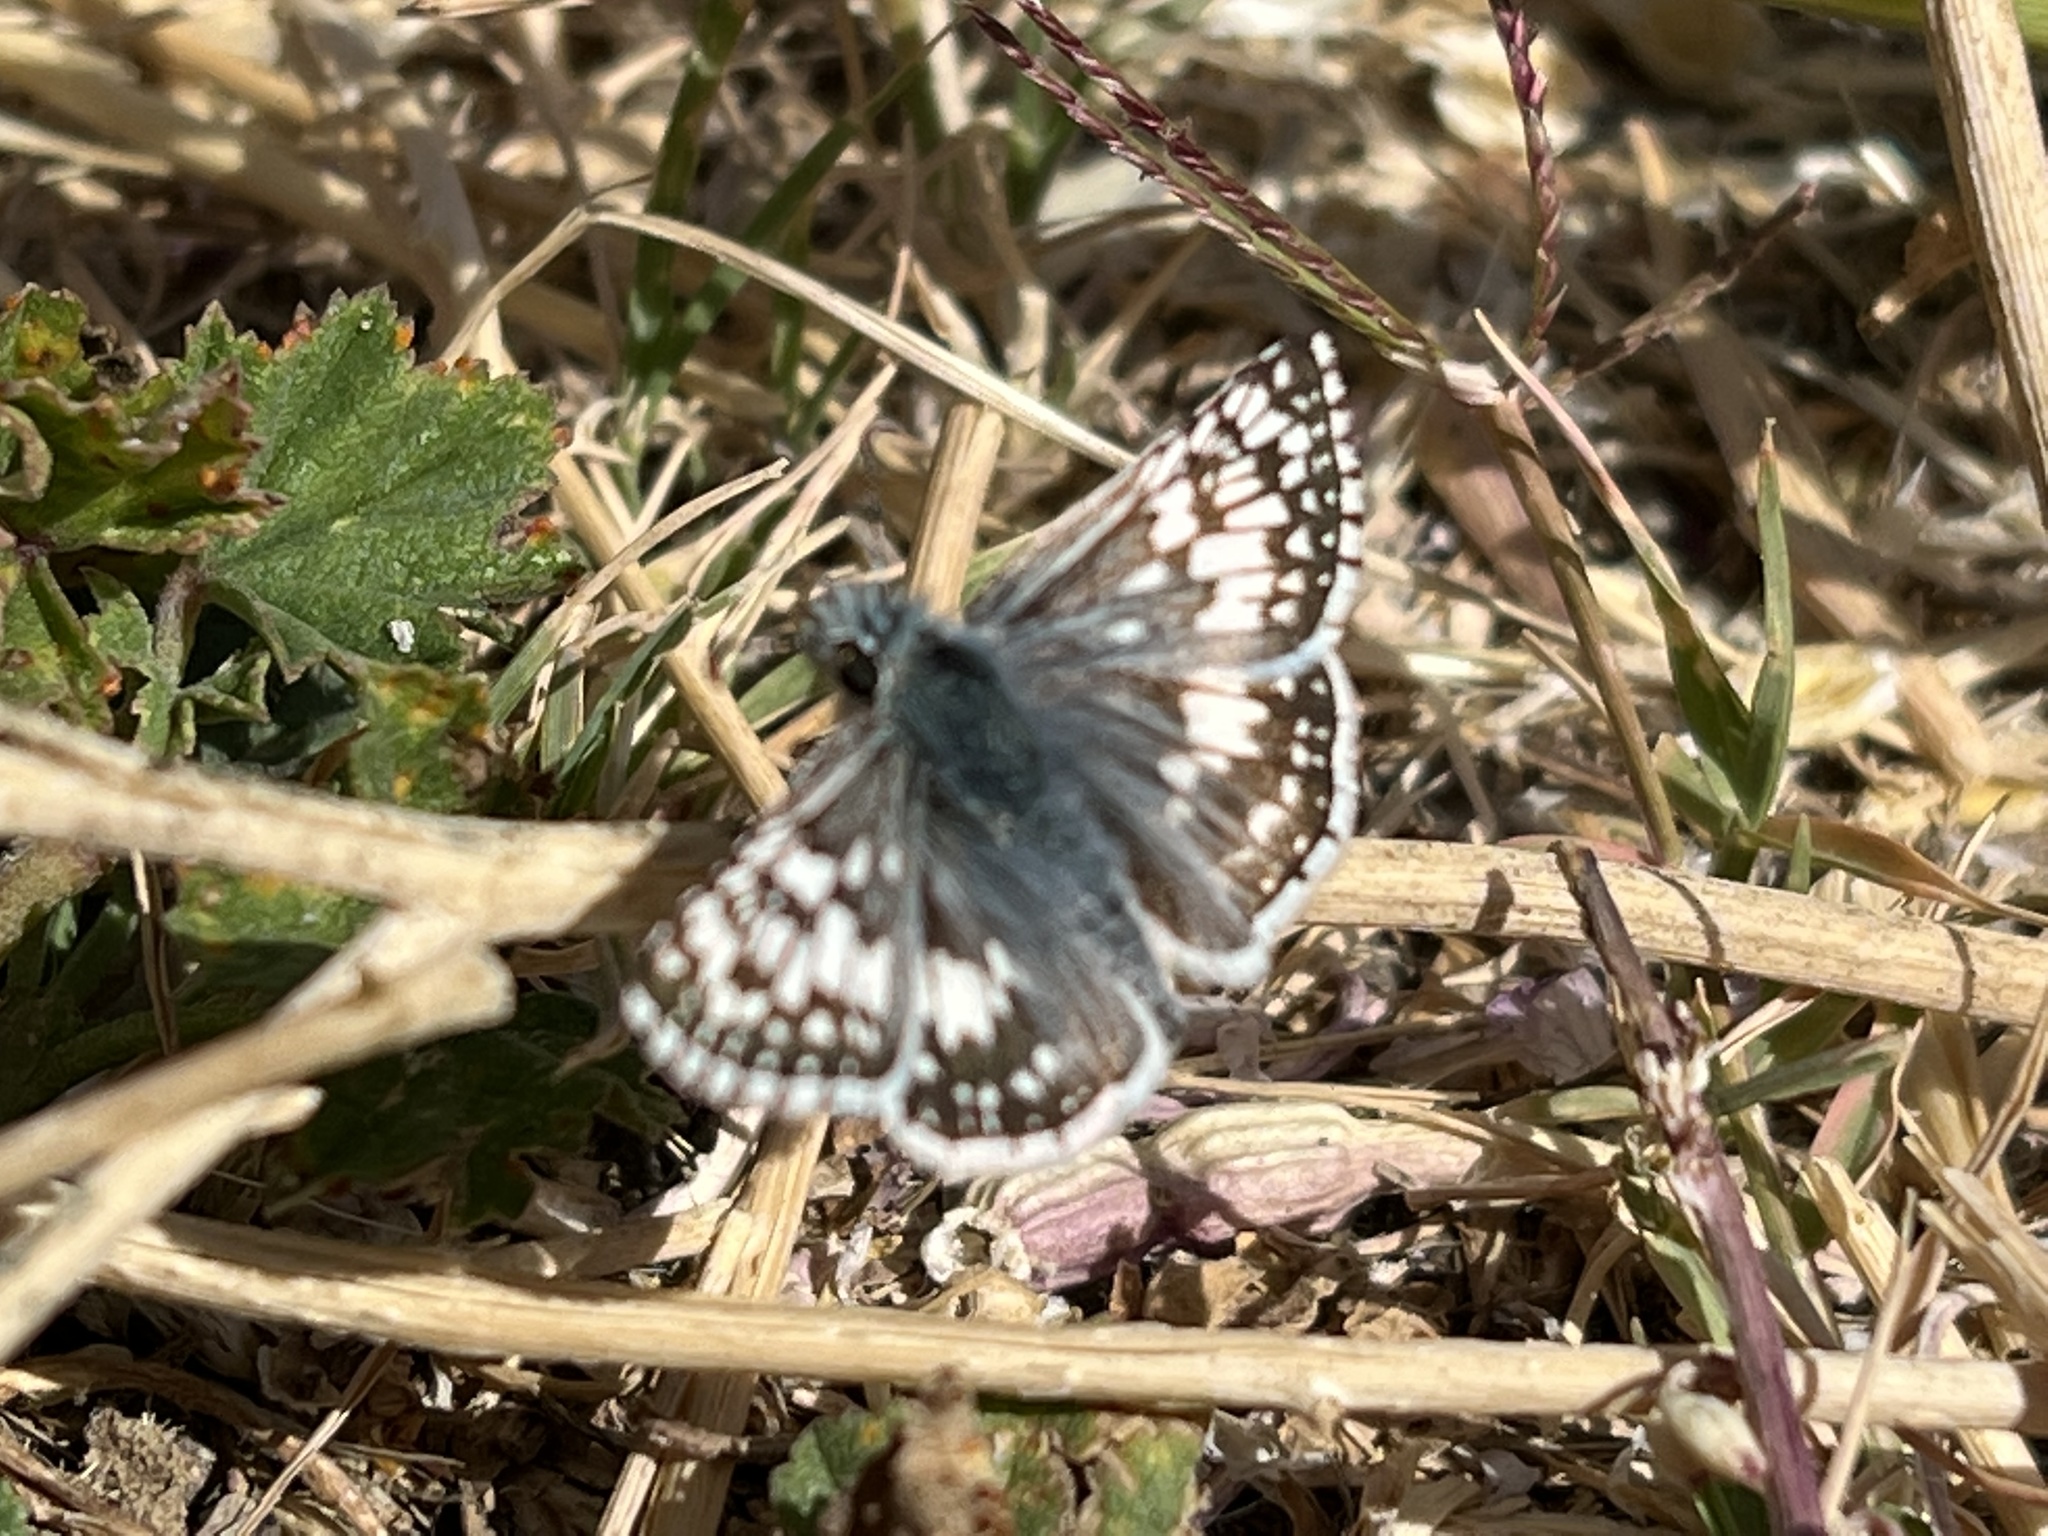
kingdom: Animalia
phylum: Arthropoda
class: Insecta
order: Lepidoptera
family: Hesperiidae
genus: Burnsius
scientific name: Burnsius communis
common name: Common checkered-skipper
